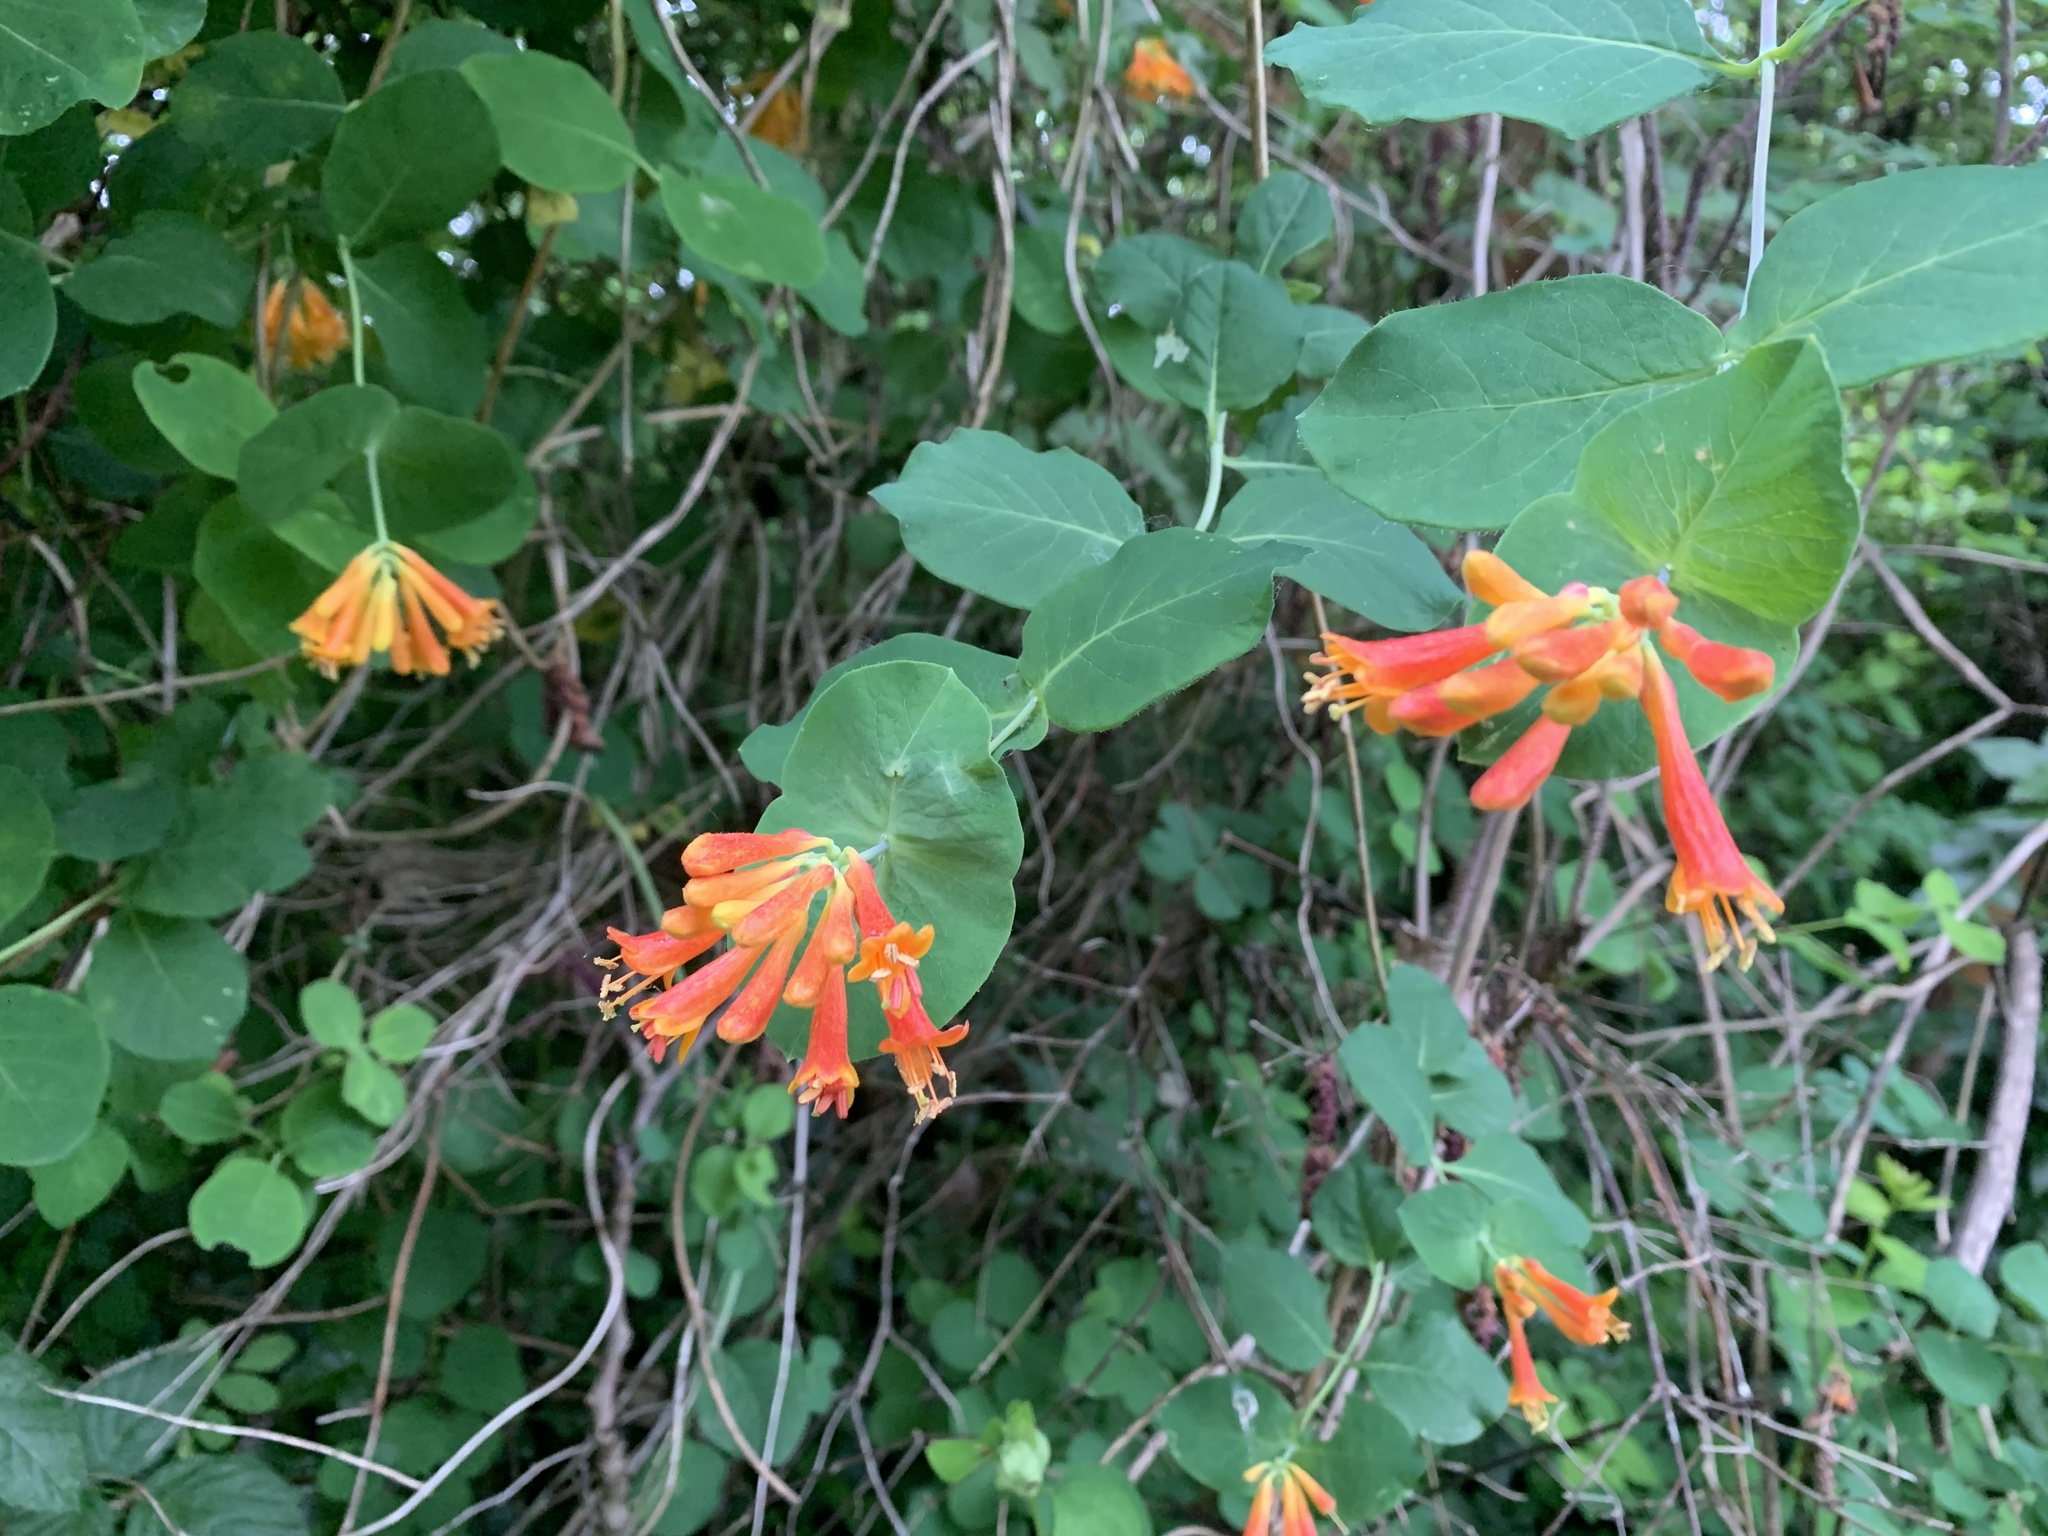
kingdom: Plantae
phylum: Tracheophyta
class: Magnoliopsida
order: Dipsacales
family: Caprifoliaceae
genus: Lonicera
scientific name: Lonicera ciliosa
